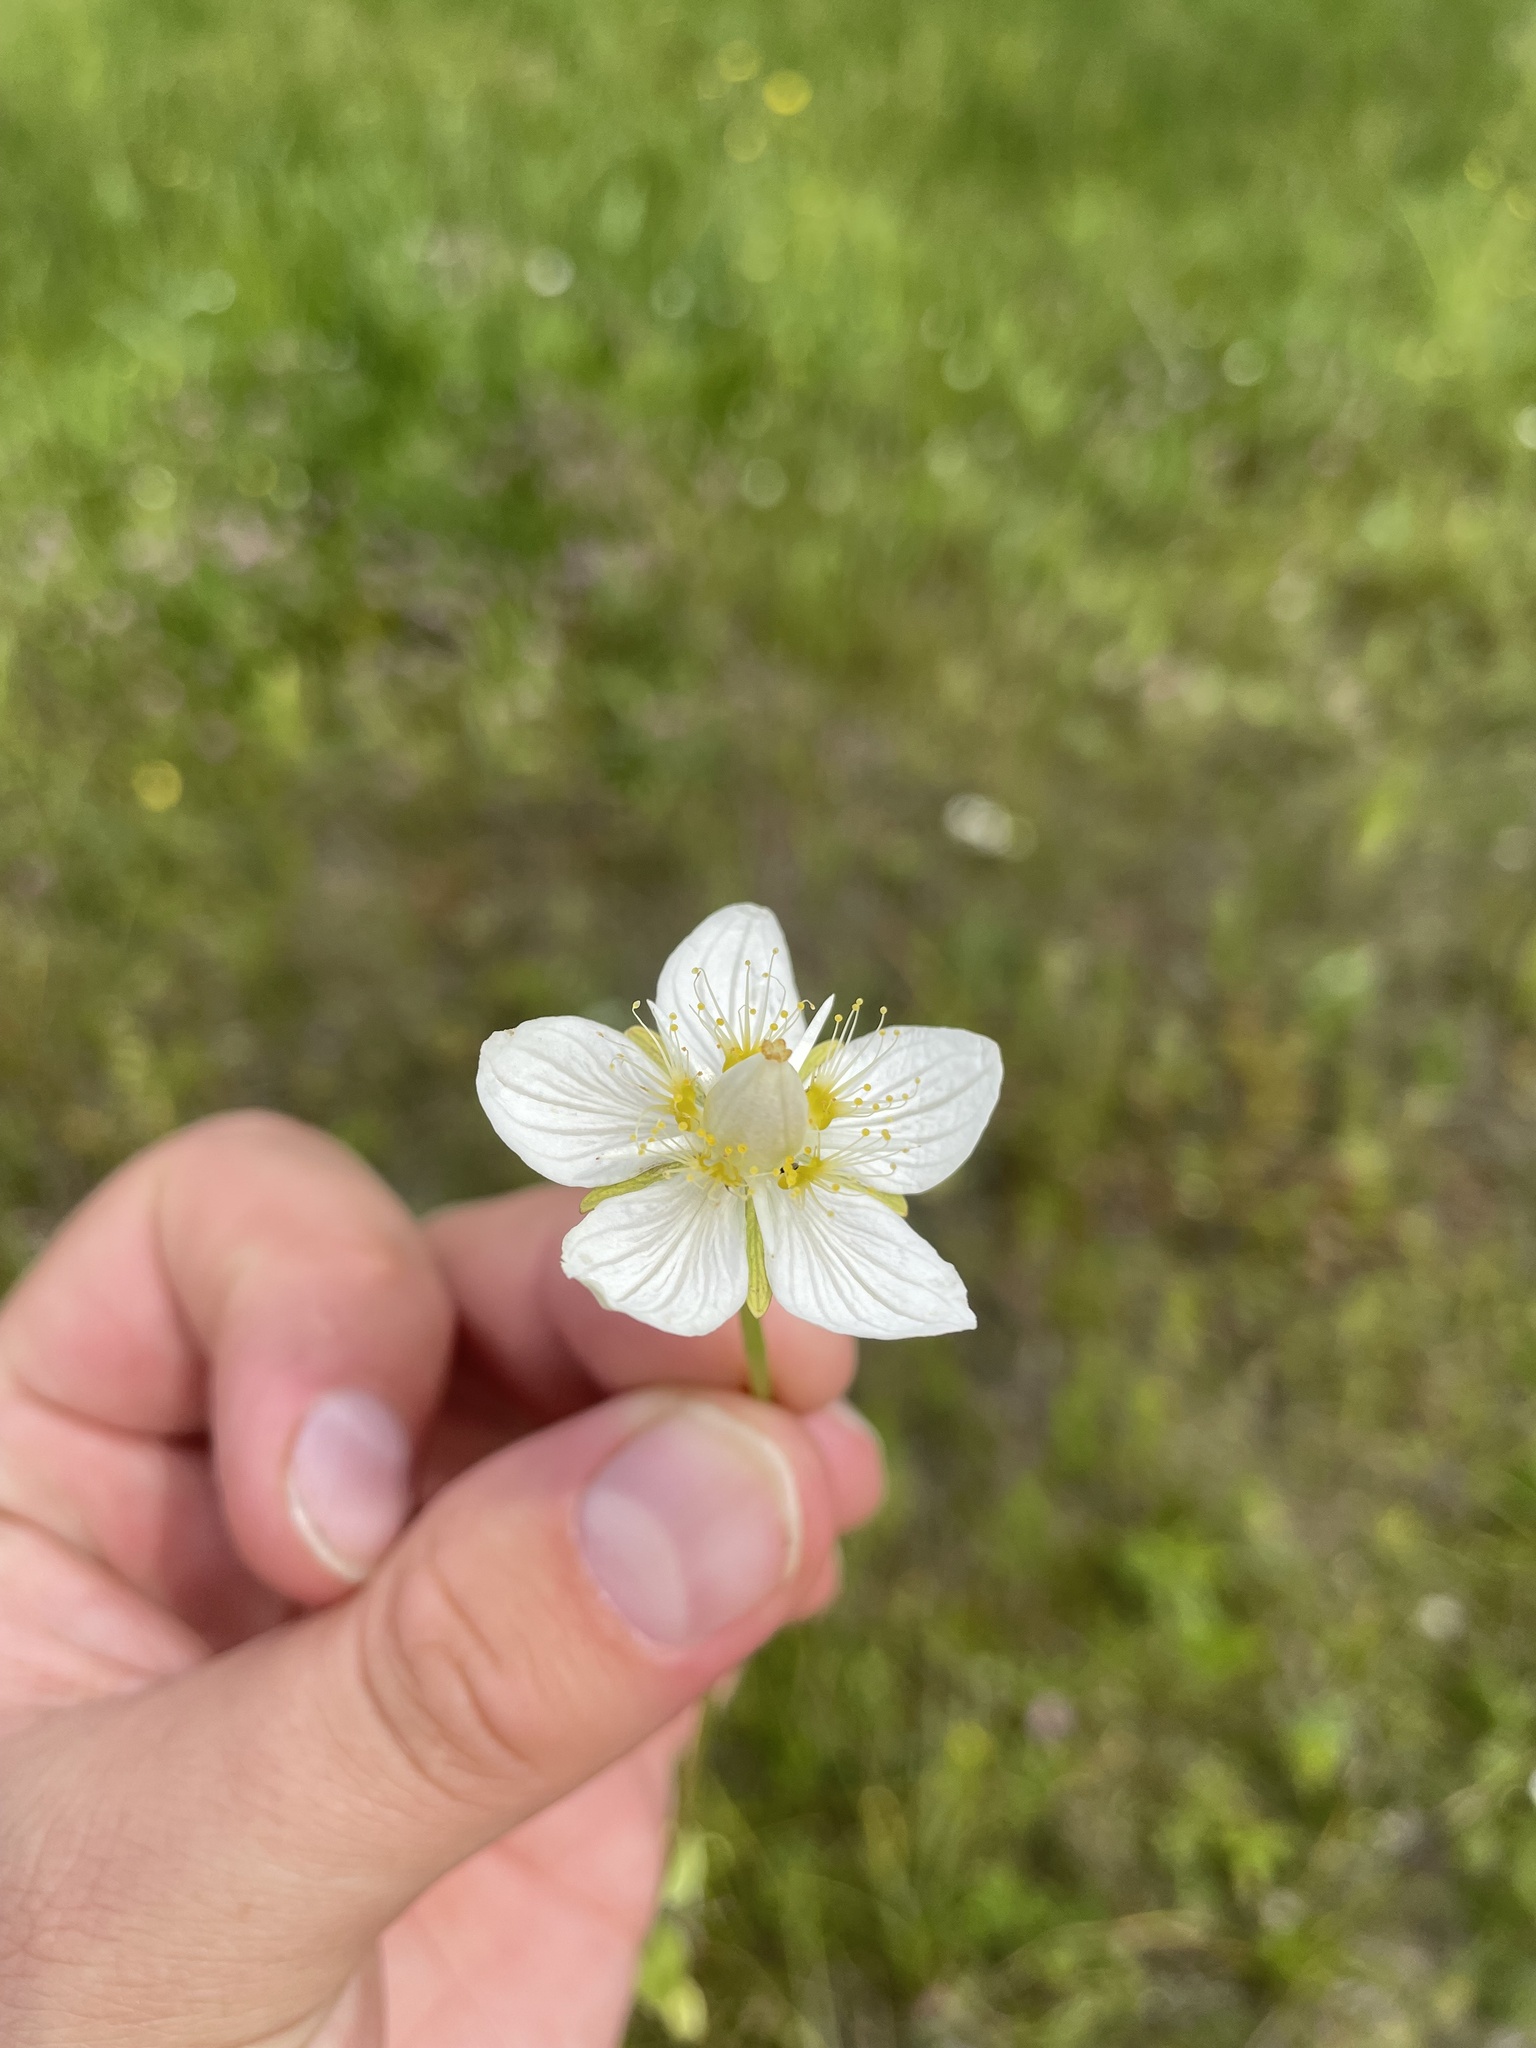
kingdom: Plantae
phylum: Tracheophyta
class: Magnoliopsida
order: Celastrales
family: Parnassiaceae
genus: Parnassia
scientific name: Parnassia palustris
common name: Grass-of-parnassus
